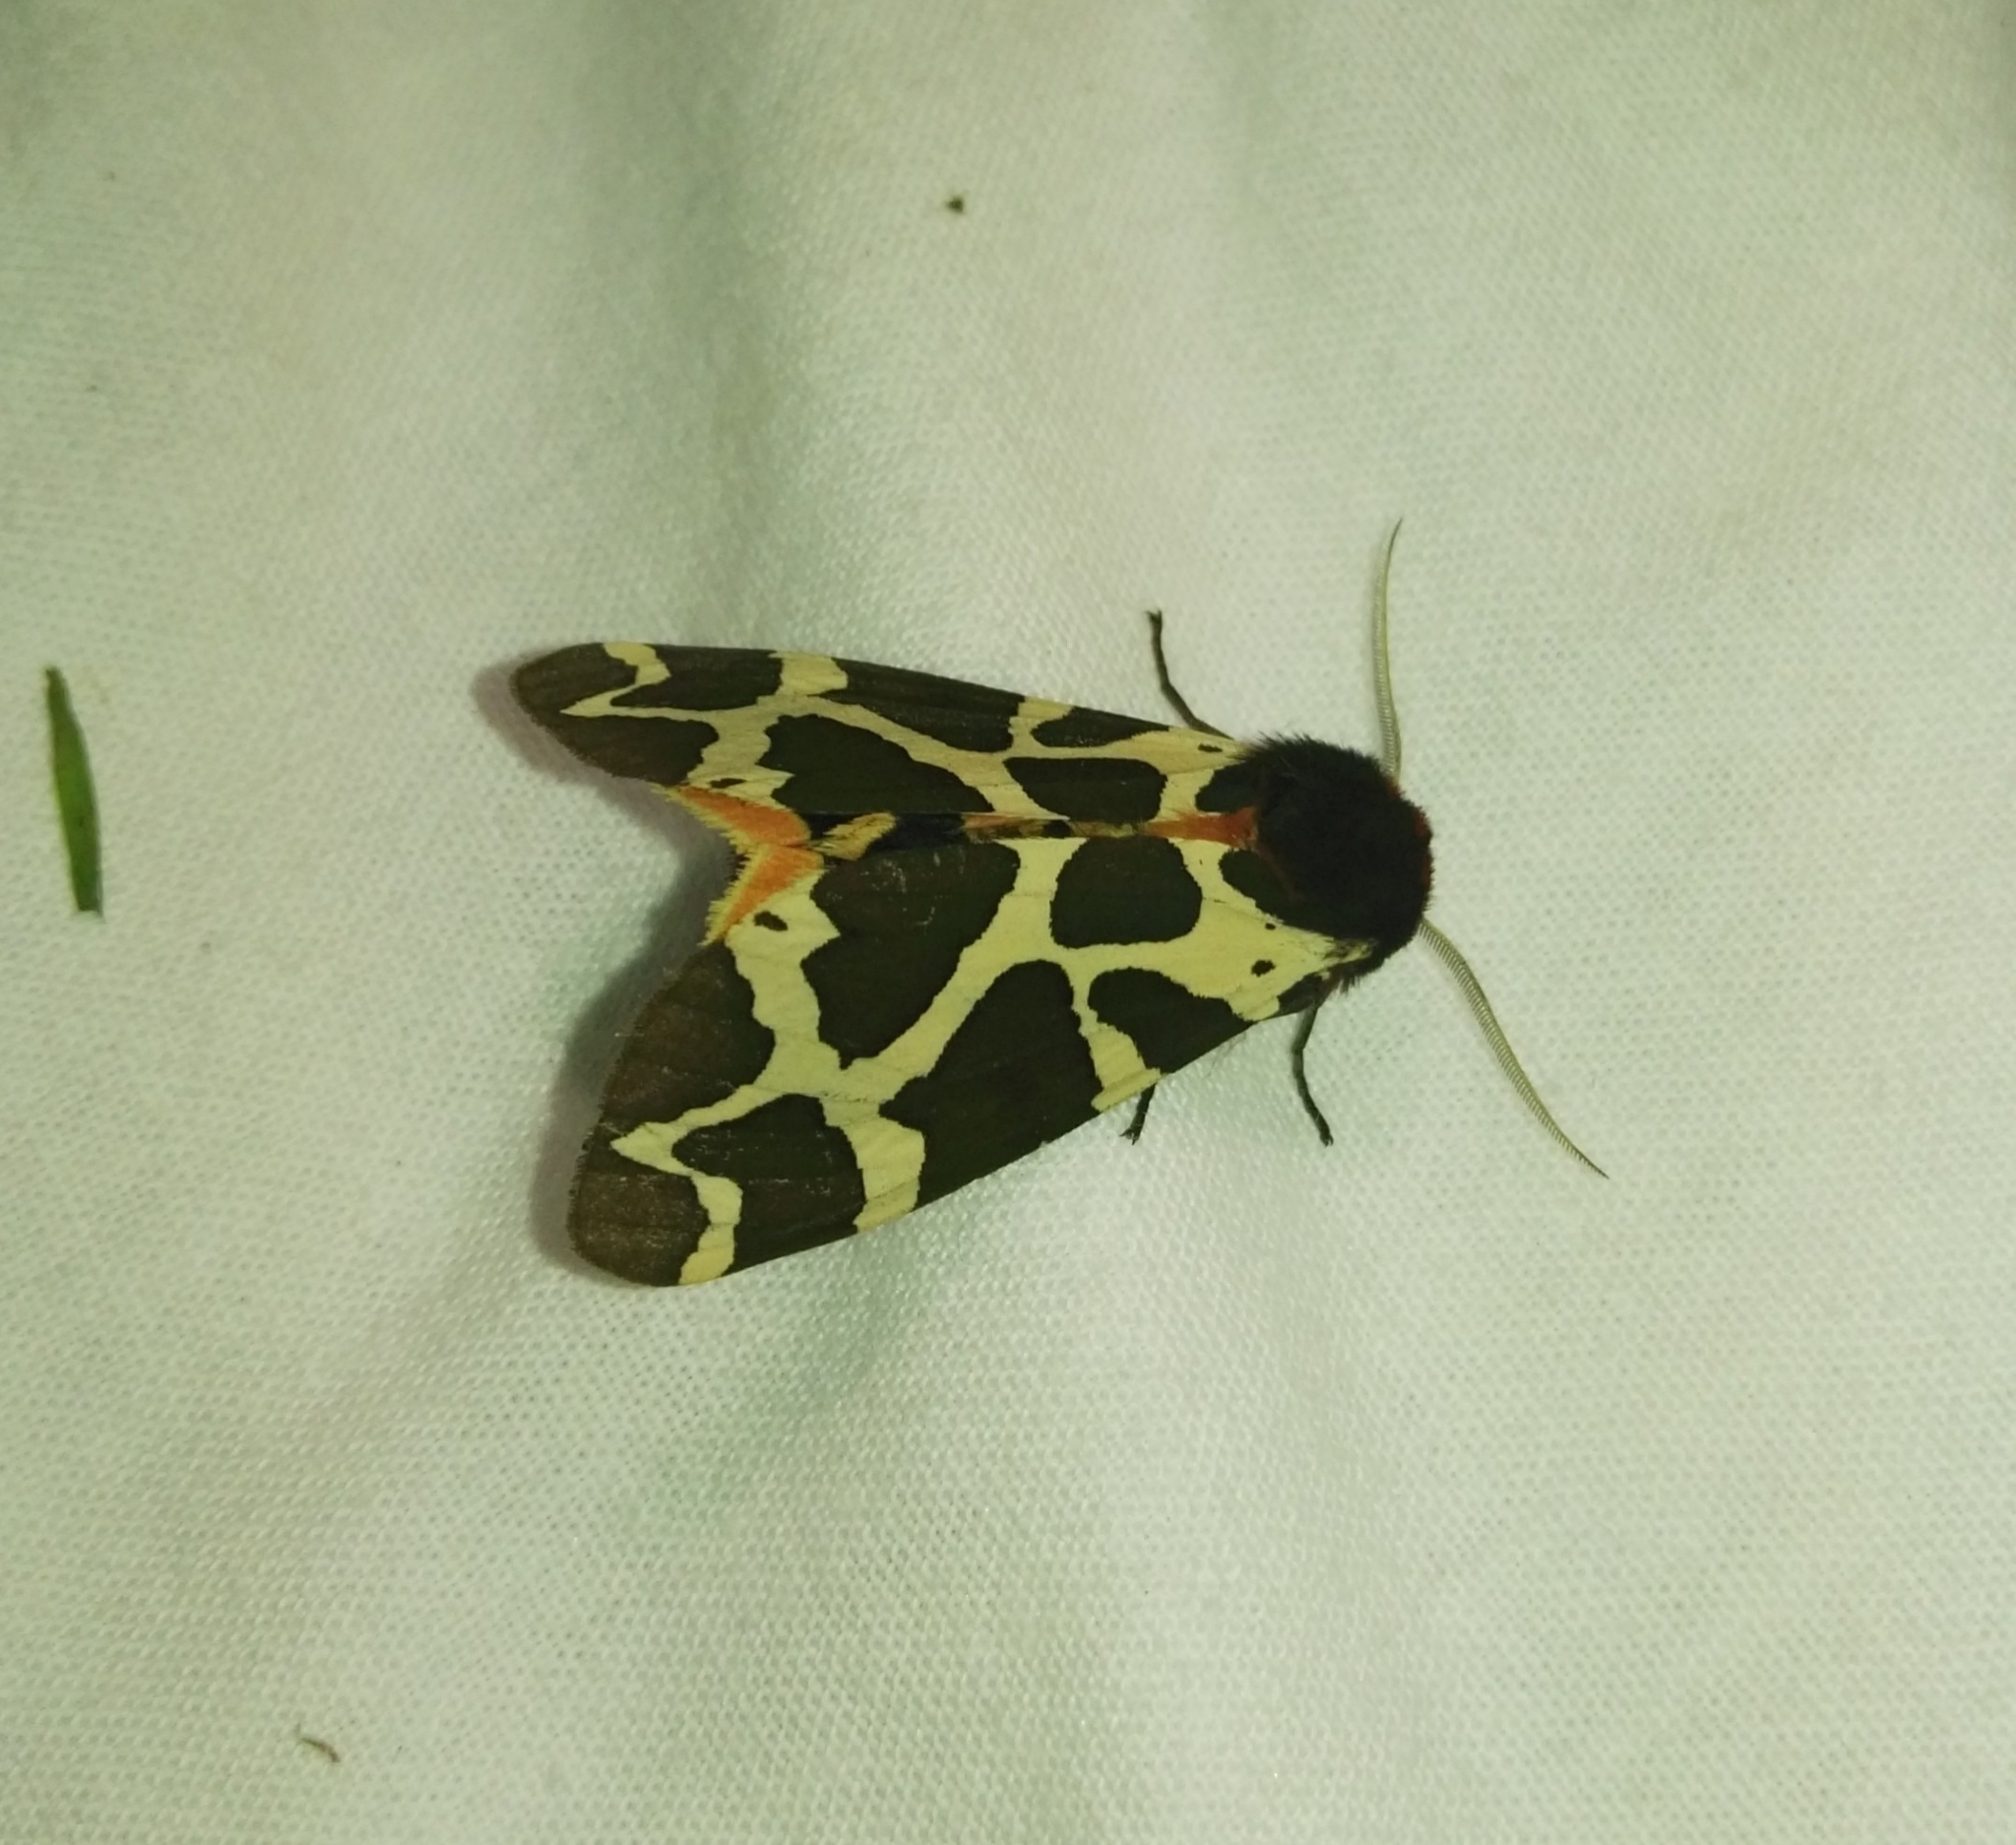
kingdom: Animalia
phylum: Arthropoda
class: Insecta
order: Lepidoptera
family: Erebidae
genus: Arctia
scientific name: Arctia caja
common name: Garden tiger
